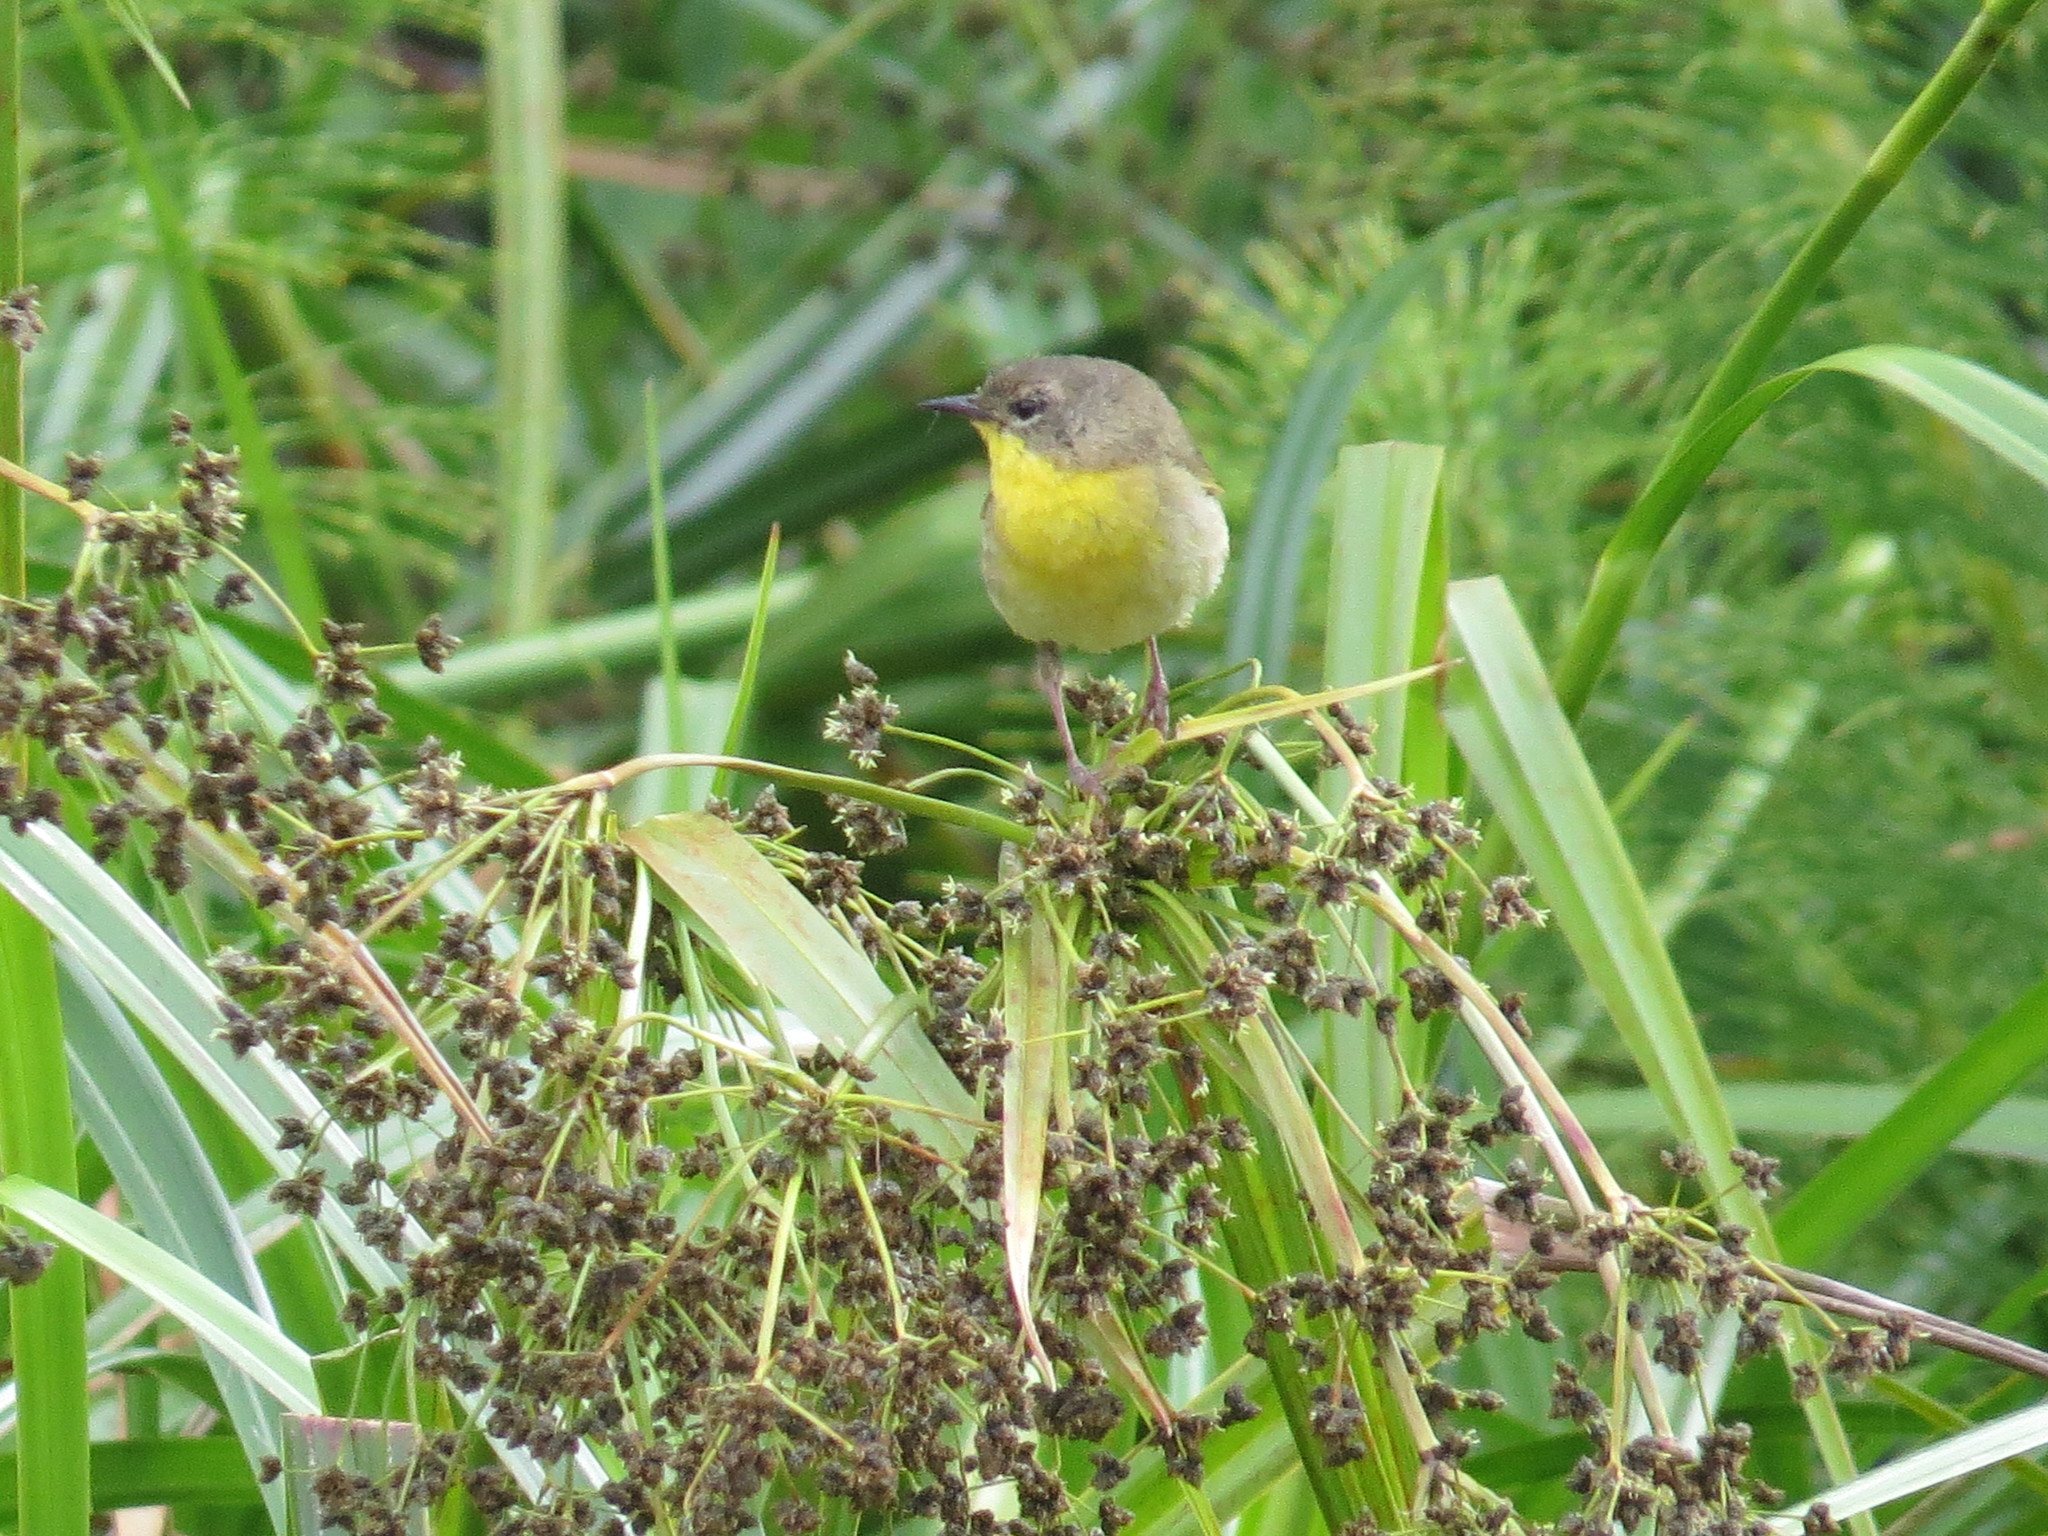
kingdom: Animalia
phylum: Chordata
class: Aves
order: Passeriformes
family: Parulidae
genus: Geothlypis
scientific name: Geothlypis trichas
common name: Common yellowthroat
